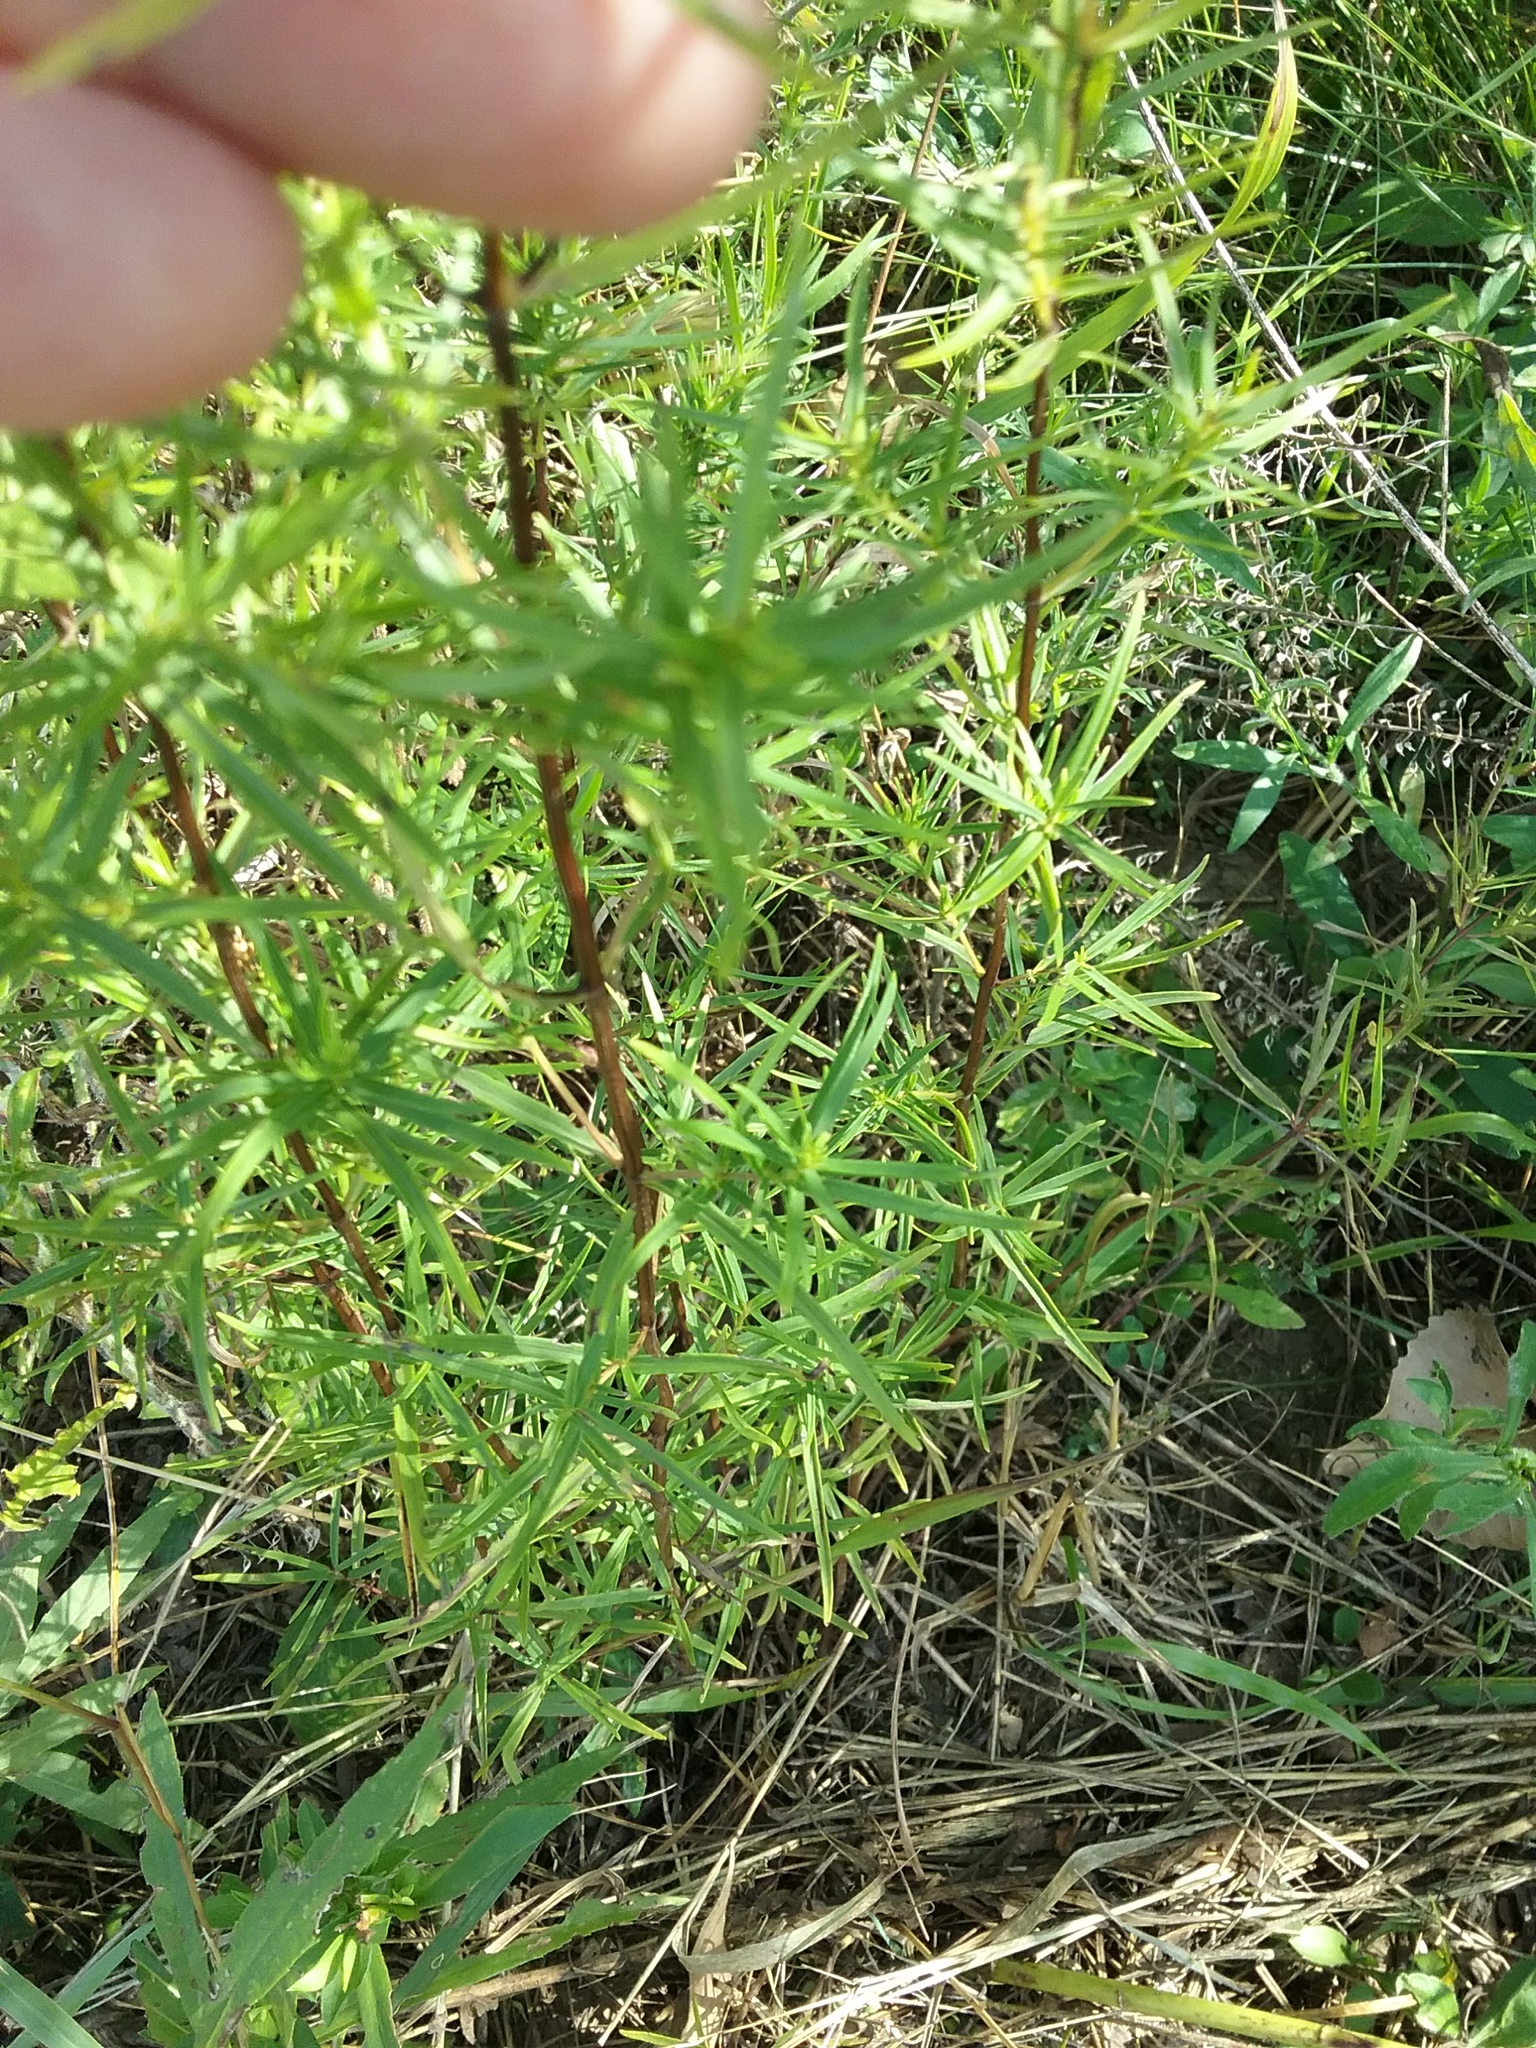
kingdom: Plantae
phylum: Tracheophyta
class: Magnoliopsida
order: Lamiales
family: Lamiaceae
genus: Pycnanthemum
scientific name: Pycnanthemum tenuifolium
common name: Narrow-leaf mountain-mint
